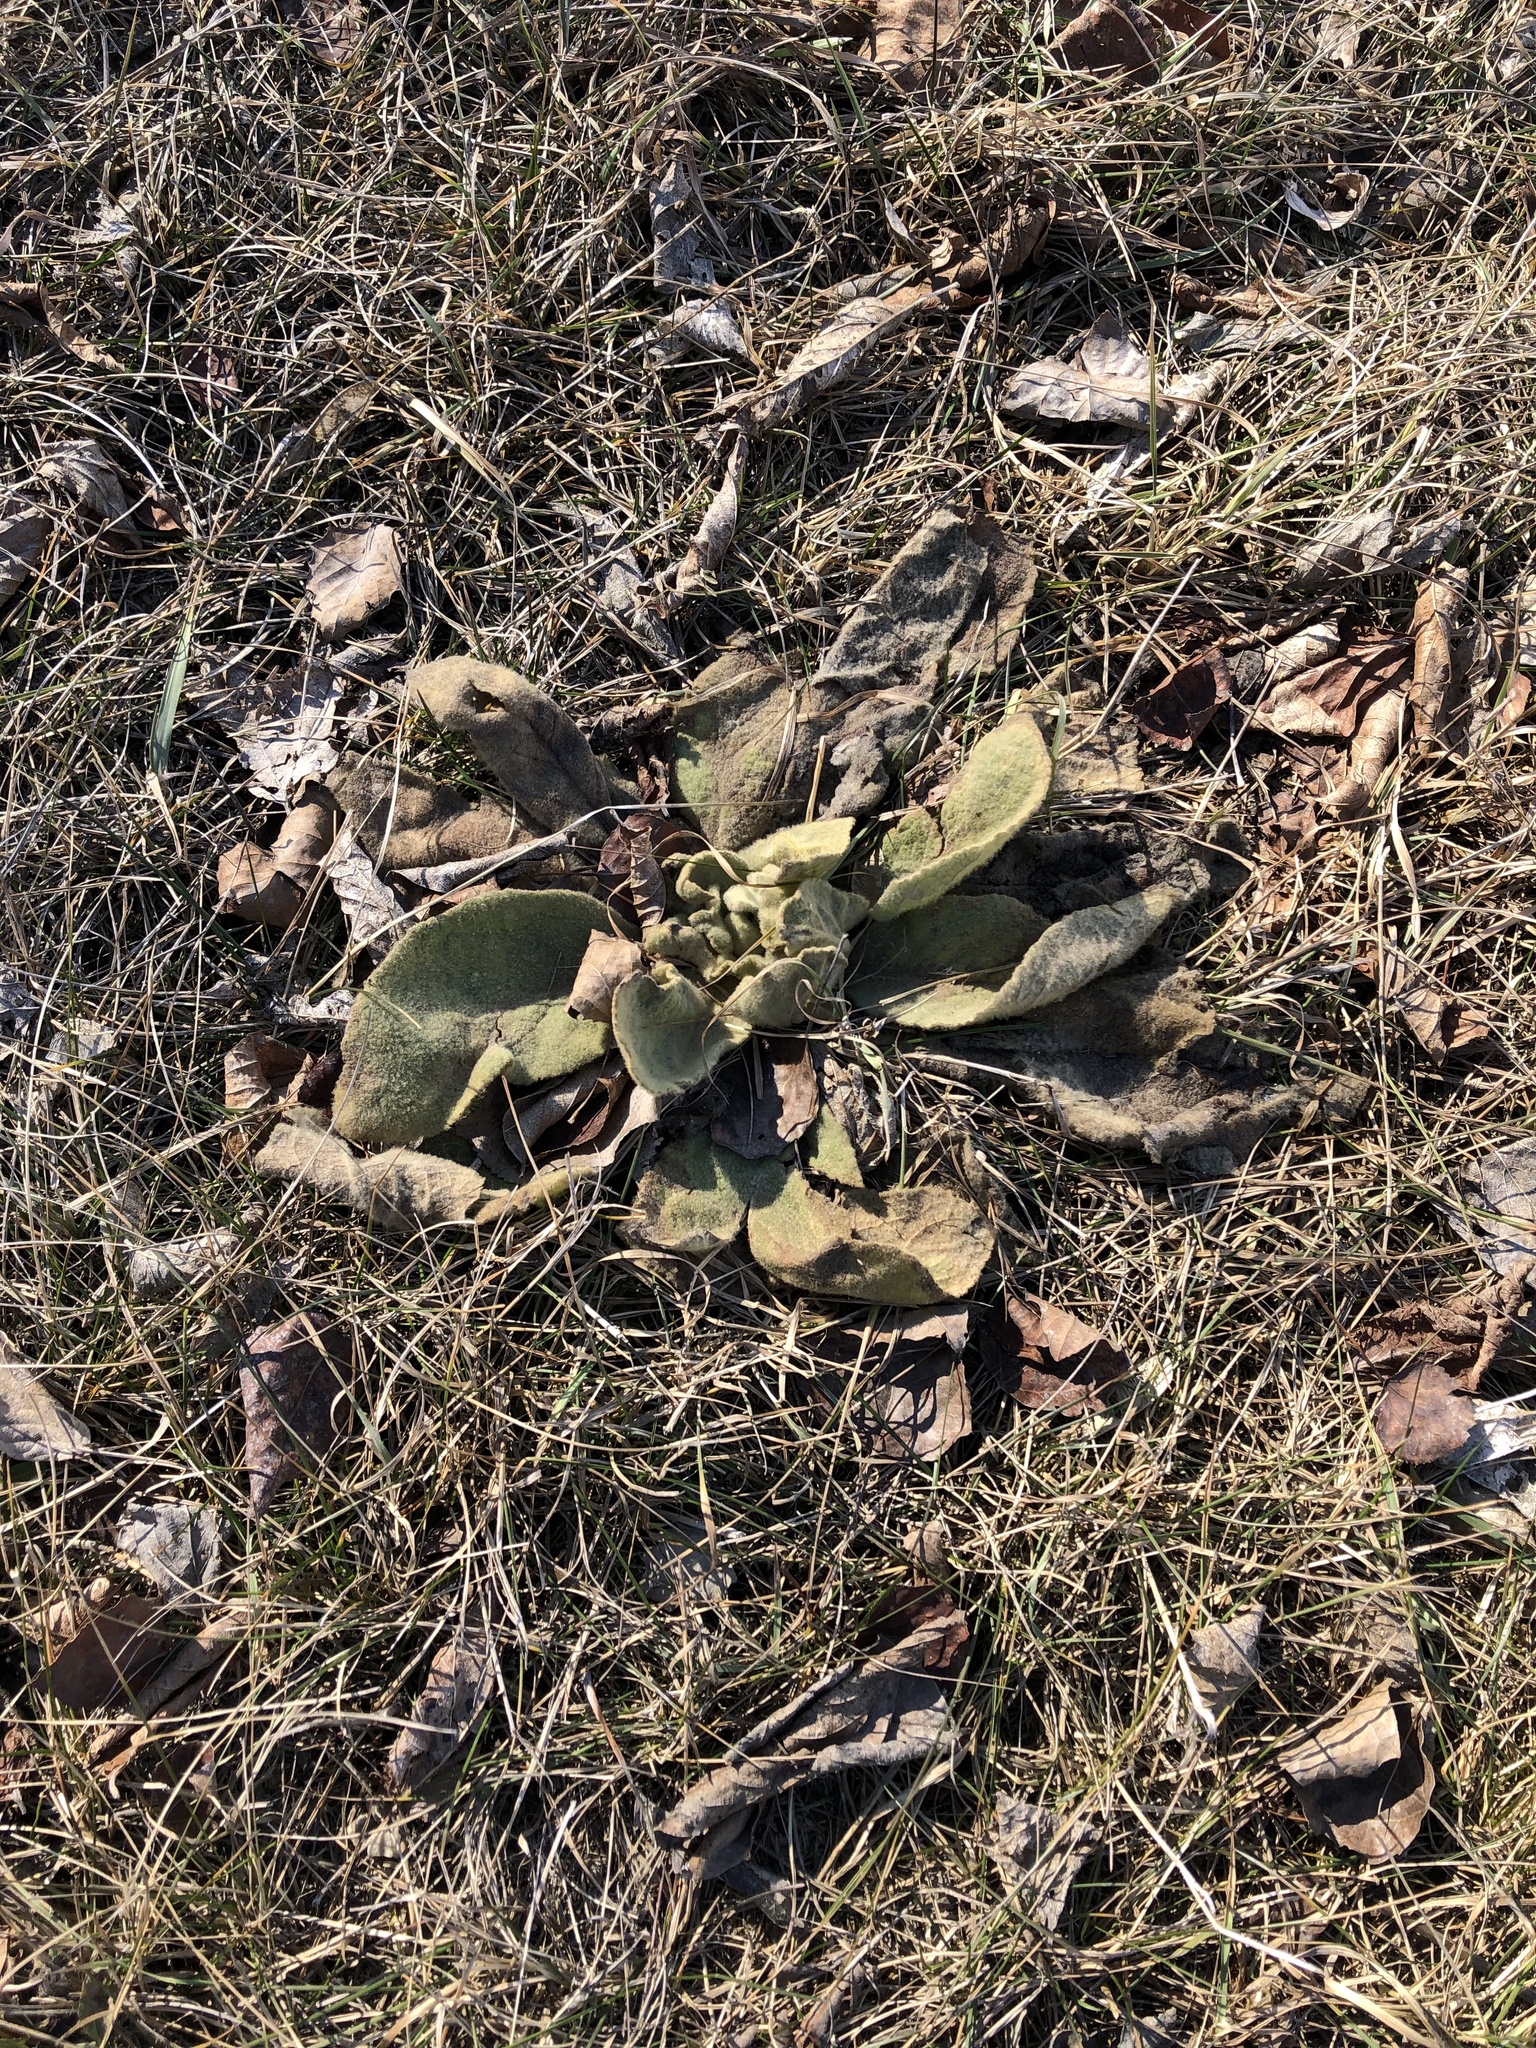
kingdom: Plantae
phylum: Tracheophyta
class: Magnoliopsida
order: Lamiales
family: Scrophulariaceae
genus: Verbascum
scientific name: Verbascum thapsus
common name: Common mullein
